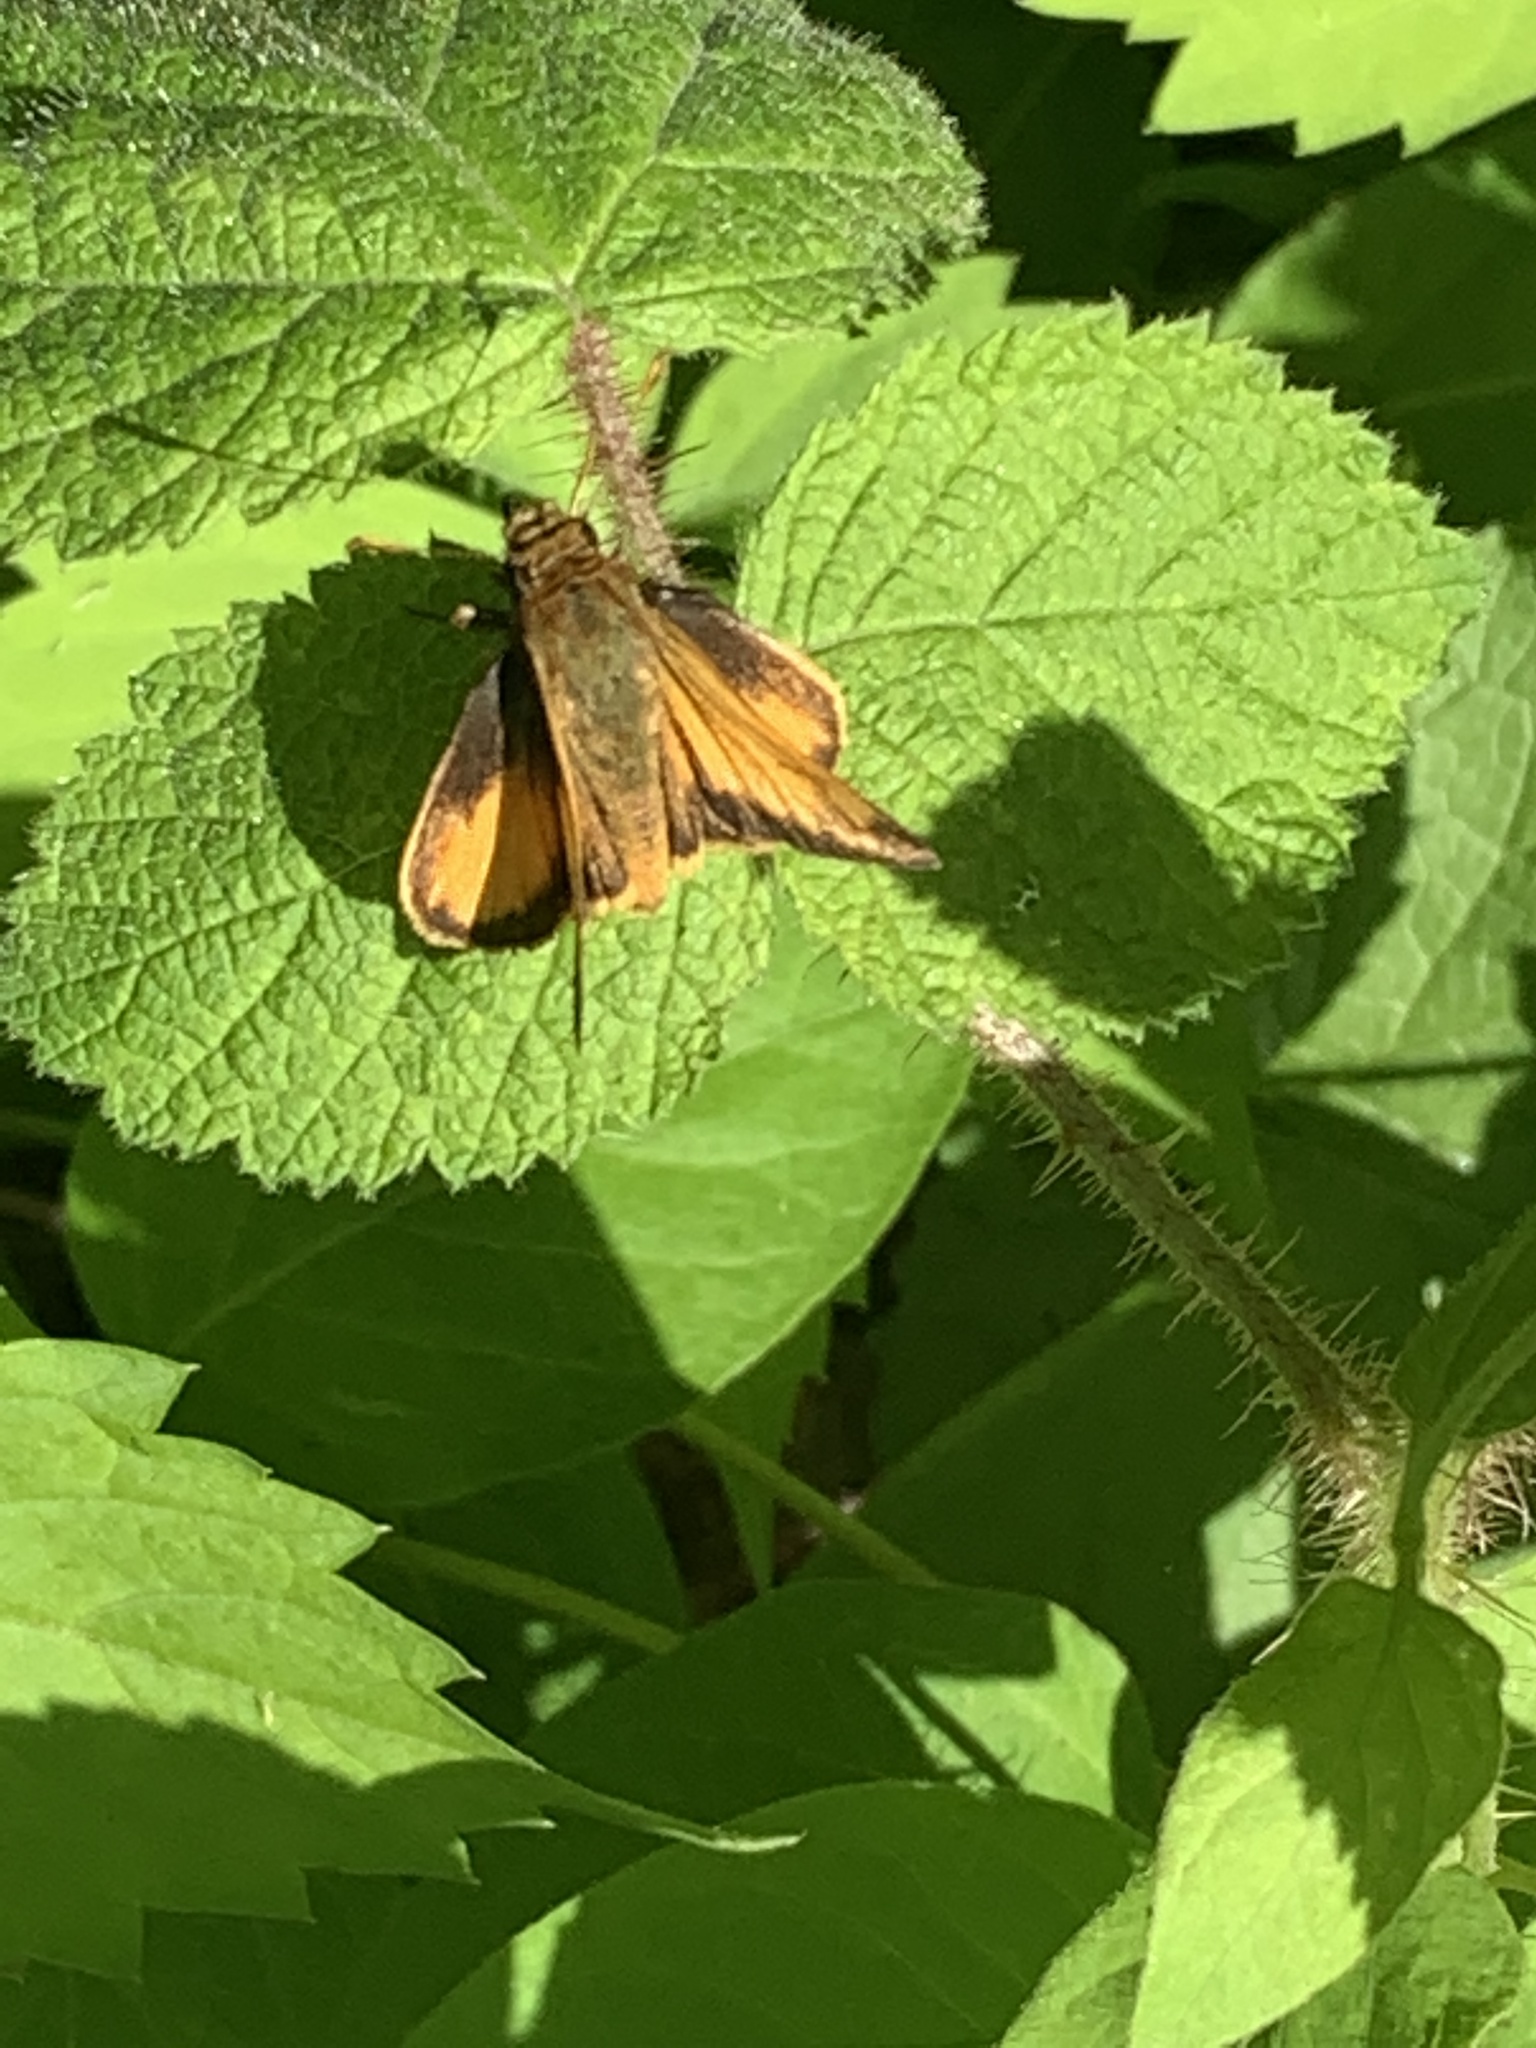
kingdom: Animalia
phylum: Arthropoda
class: Insecta
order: Lepidoptera
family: Hesperiidae
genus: Lon
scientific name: Lon zabulon
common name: Zabulon skipper
